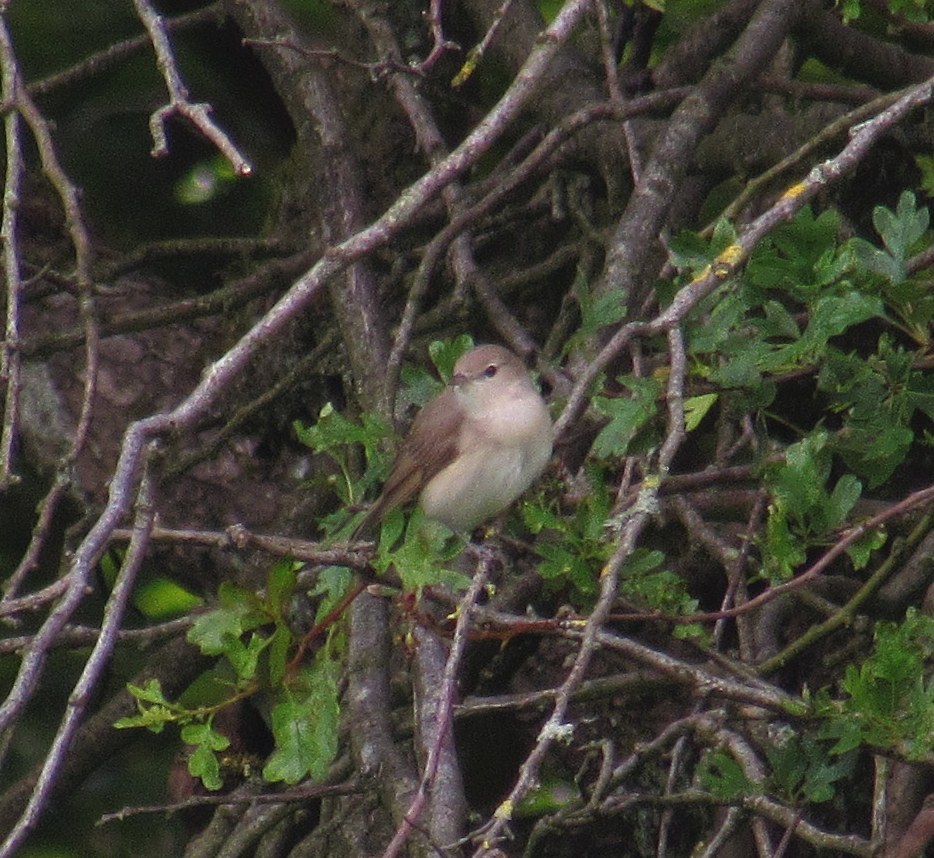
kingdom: Animalia
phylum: Chordata
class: Aves
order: Passeriformes
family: Sylviidae
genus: Sylvia
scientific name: Sylvia borin
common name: Garden warbler
